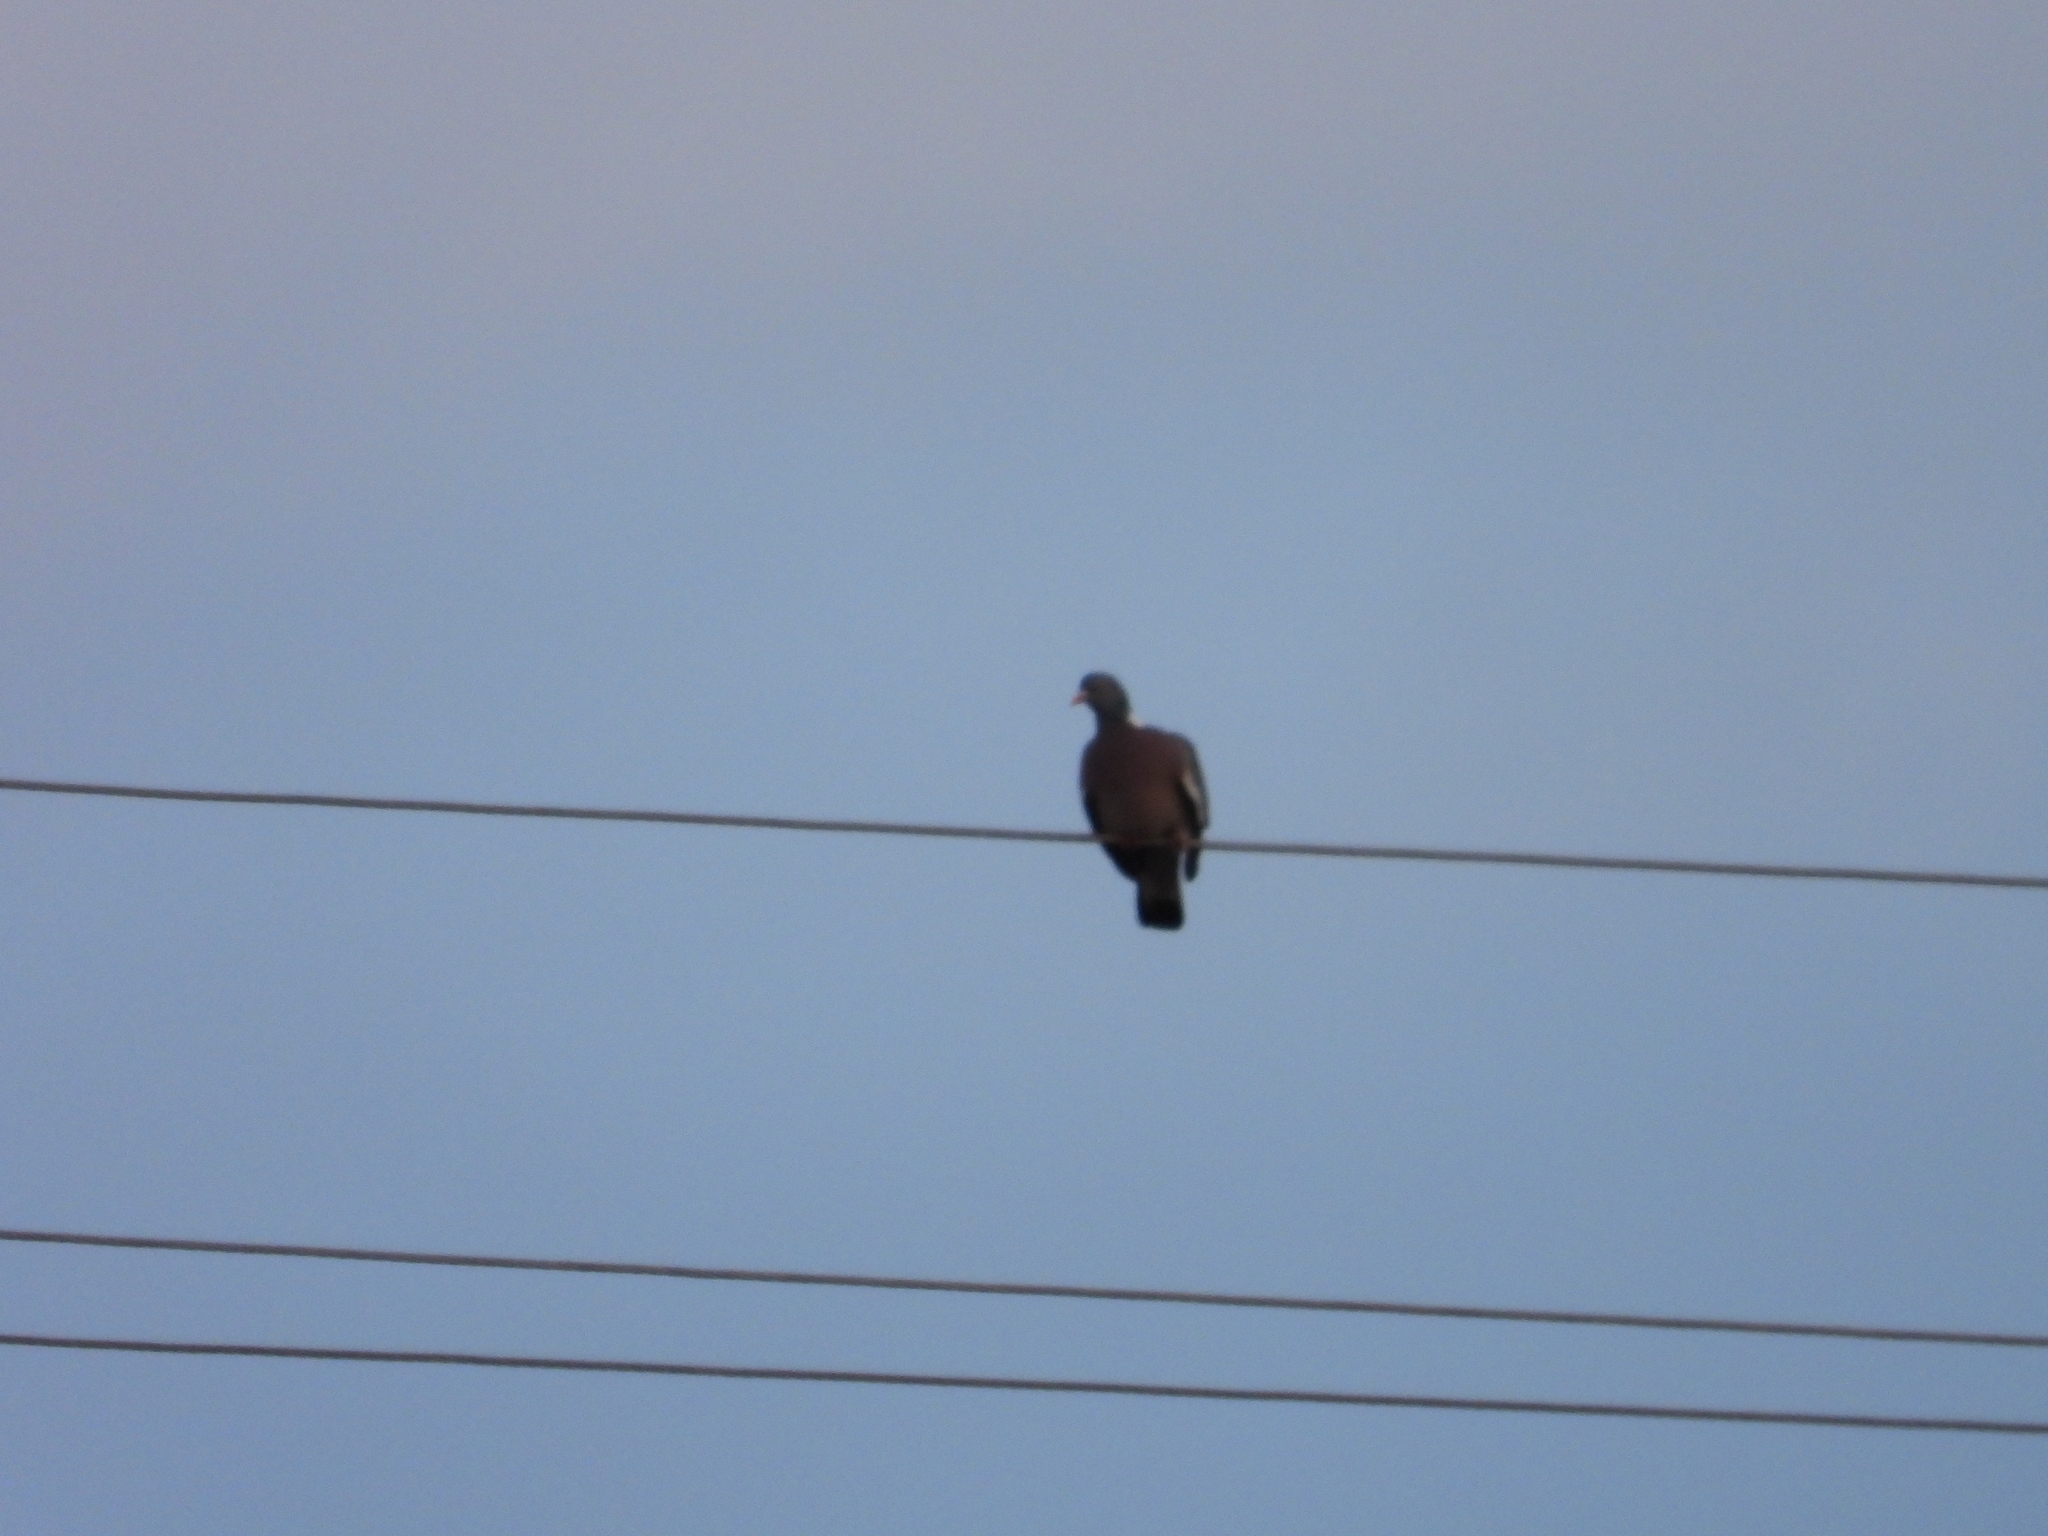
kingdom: Animalia
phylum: Chordata
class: Aves
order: Columbiformes
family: Columbidae
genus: Columba
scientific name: Columba palumbus
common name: Common wood pigeon
